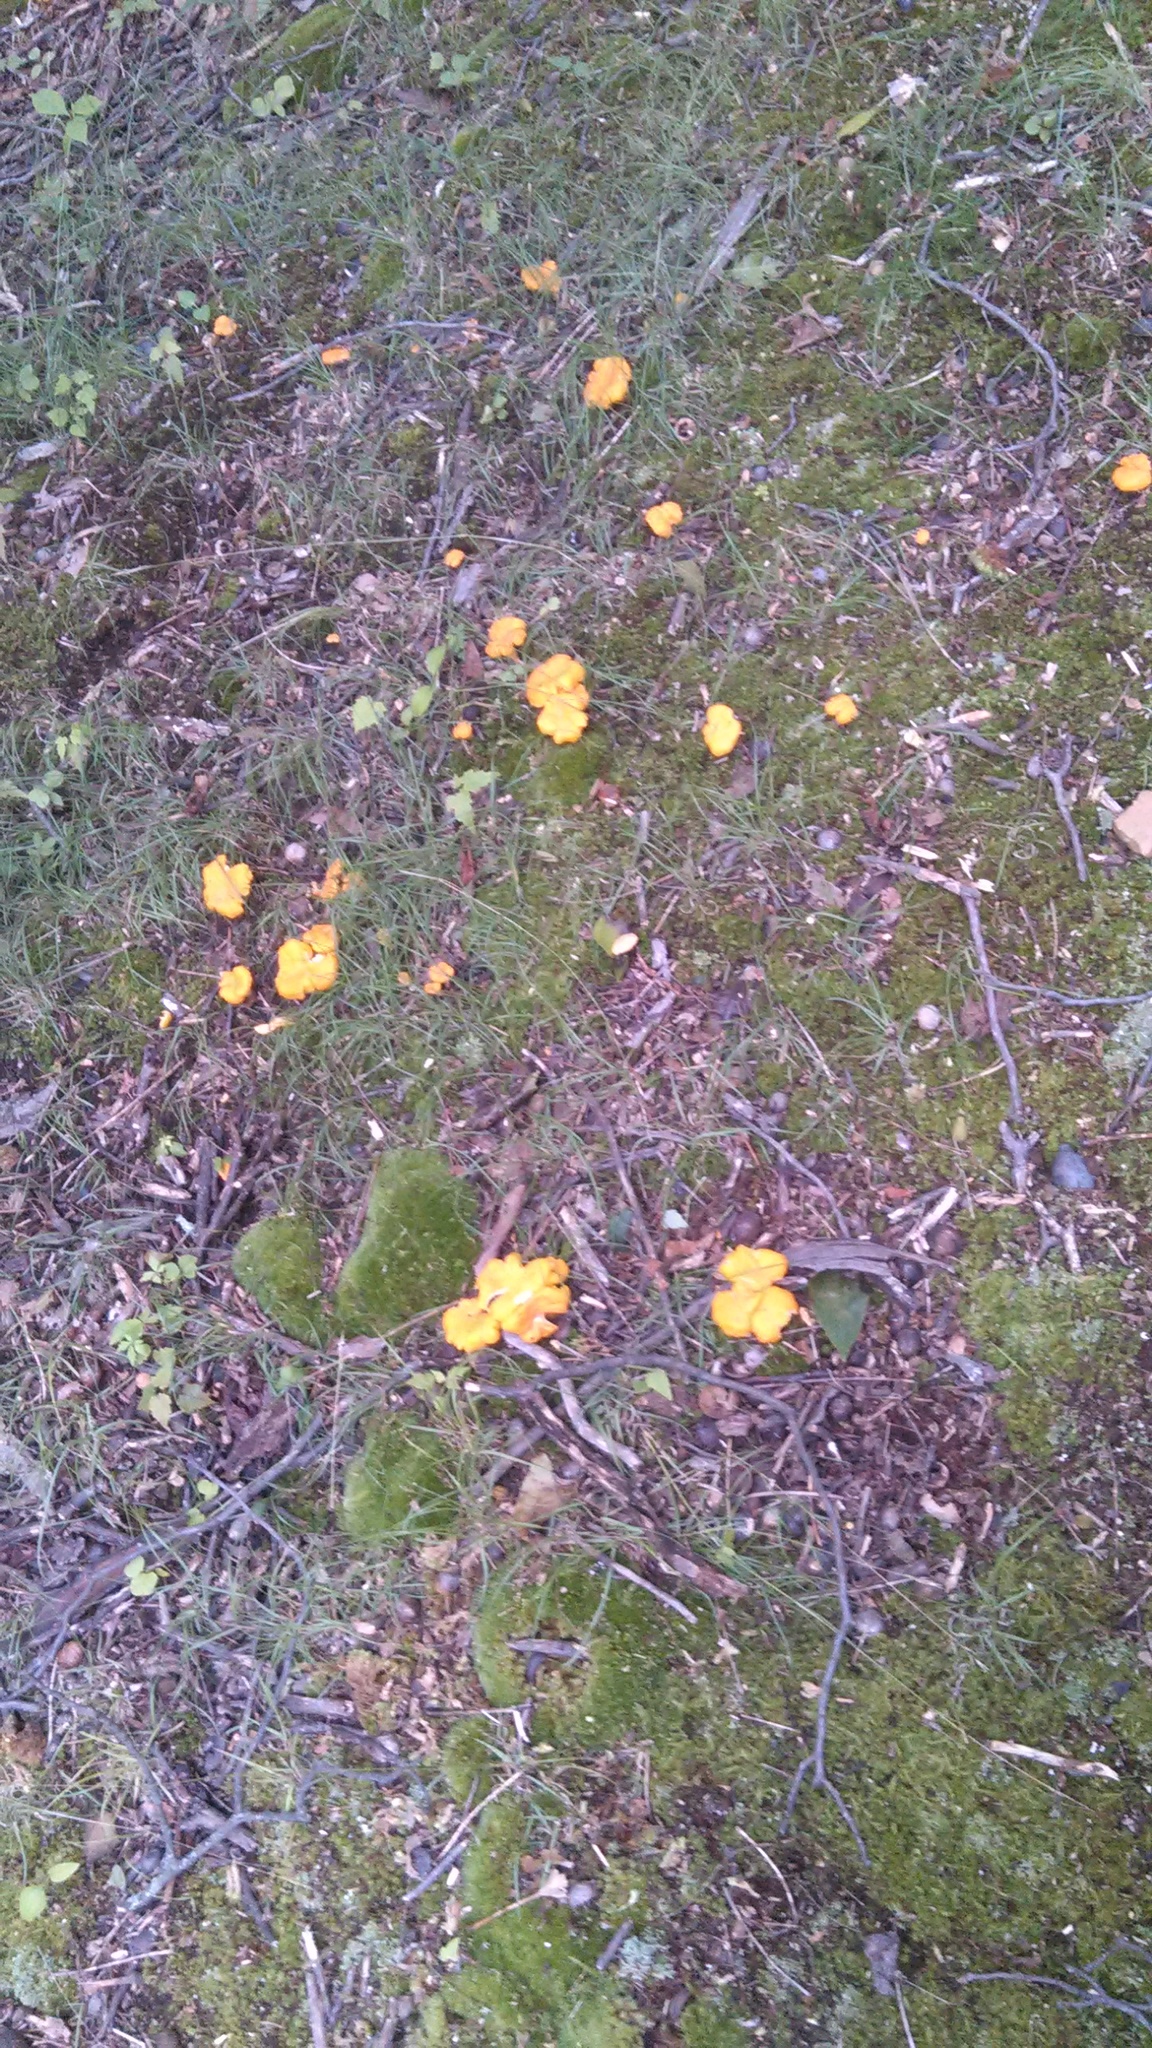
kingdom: Fungi
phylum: Basidiomycota
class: Agaricomycetes
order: Cantharellales
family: Hydnaceae
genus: Cantharellus
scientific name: Cantharellus flavolateritius
